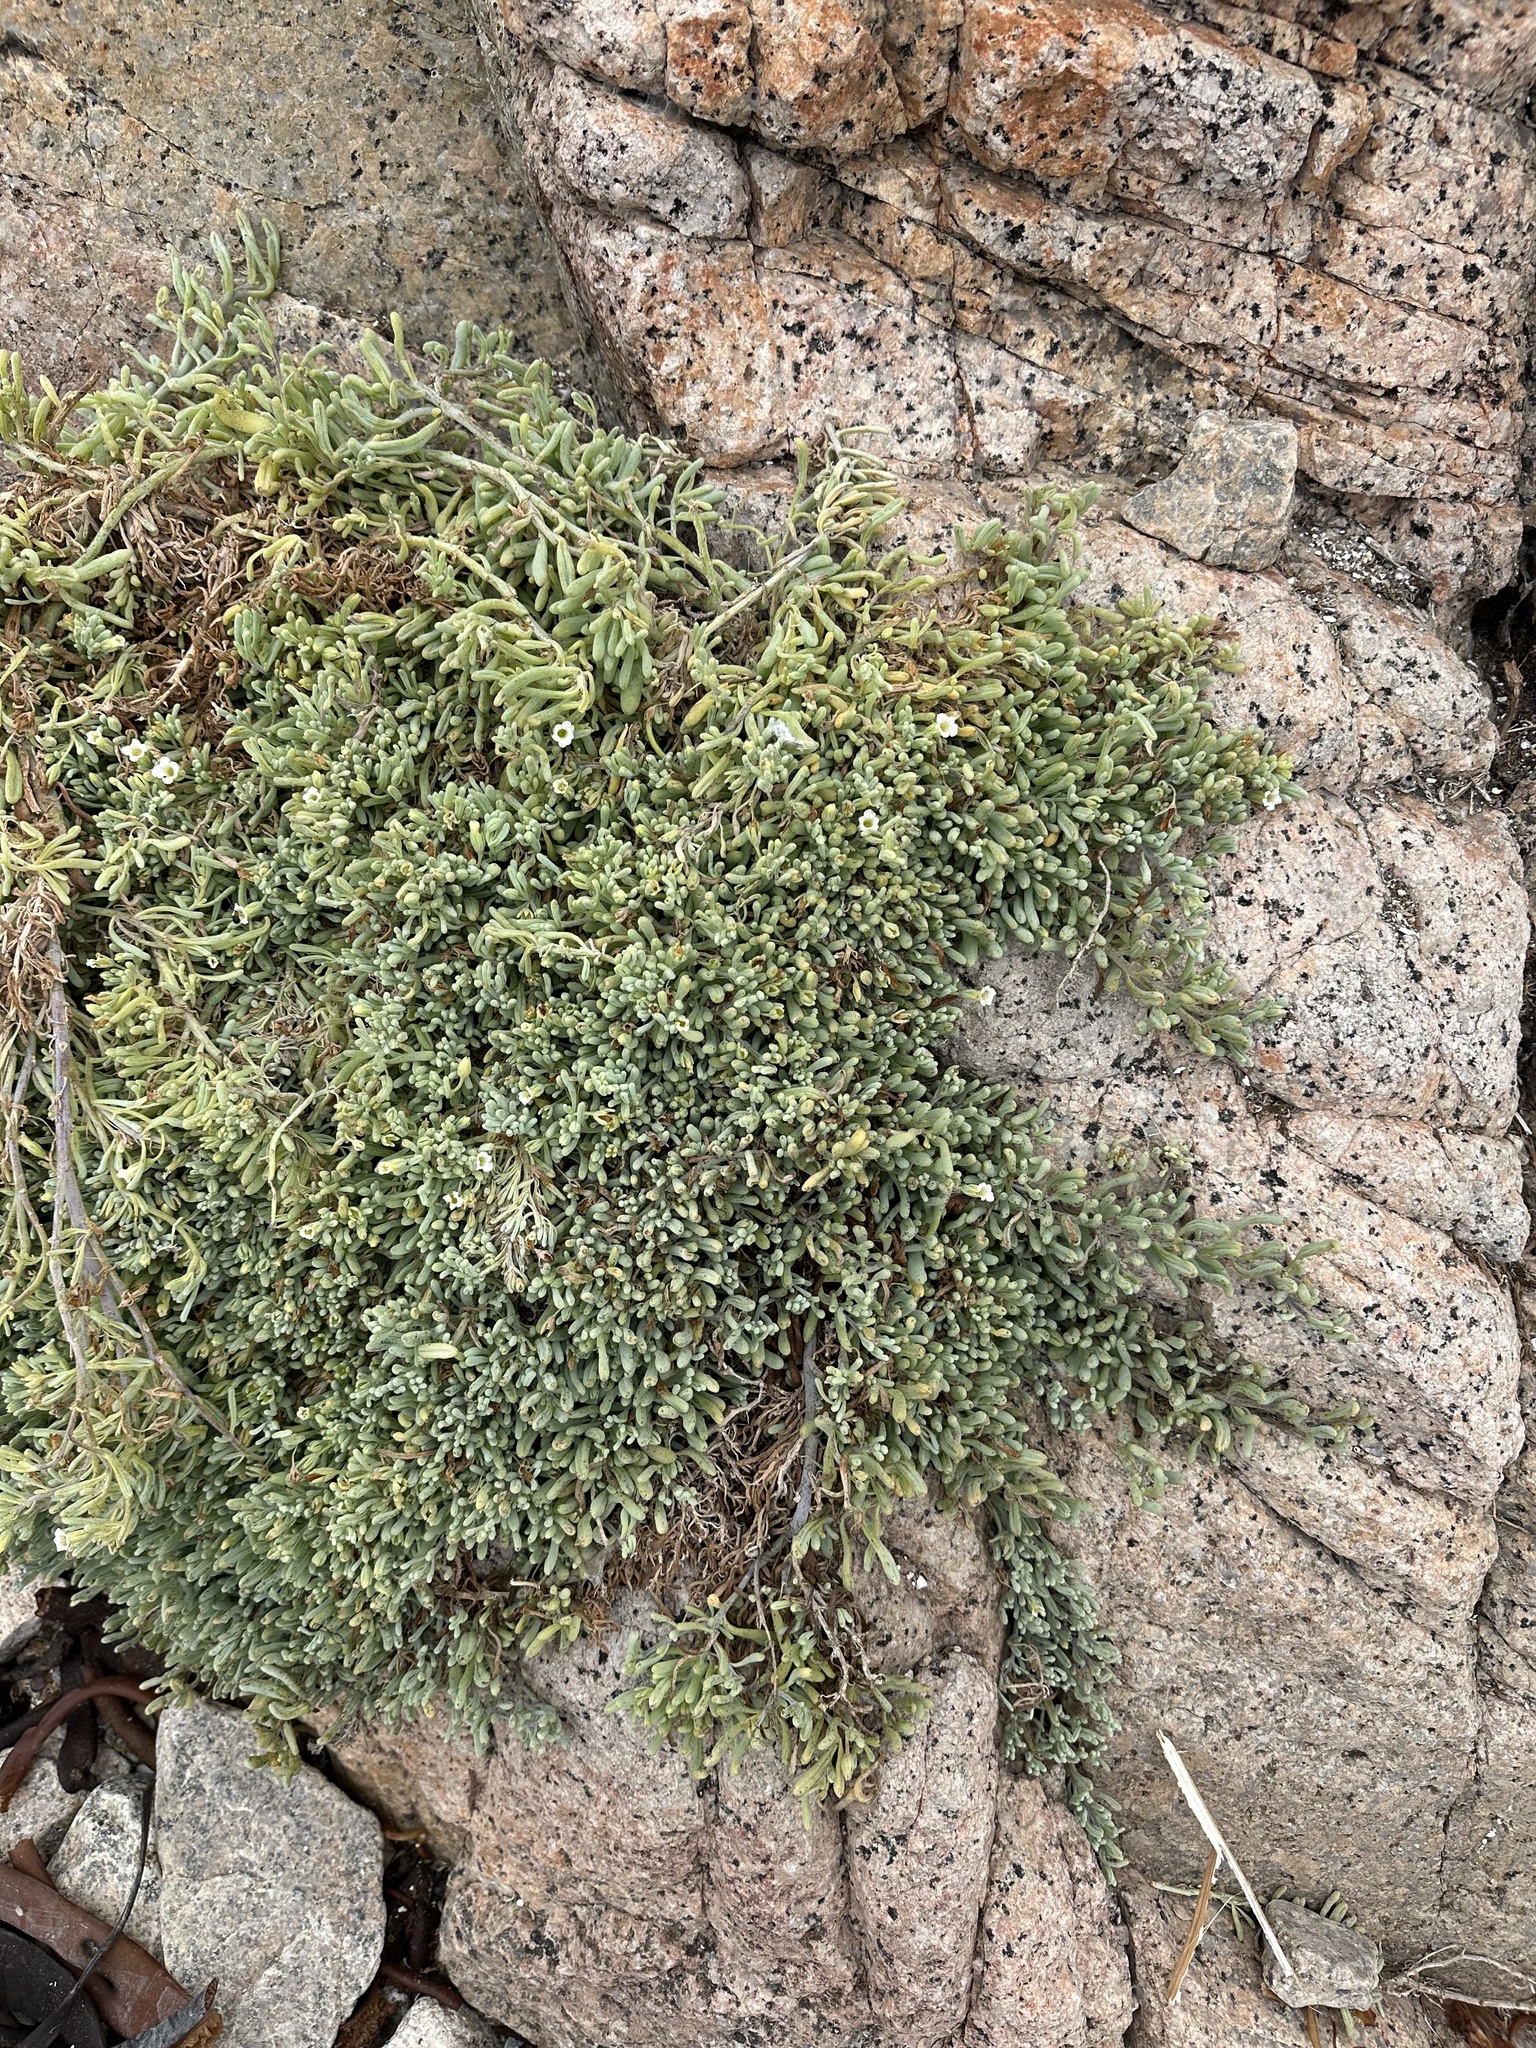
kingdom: Plantae
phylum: Tracheophyta
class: Magnoliopsida
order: Solanales
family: Solanaceae
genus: Nolana
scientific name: Nolana crassulifolia
